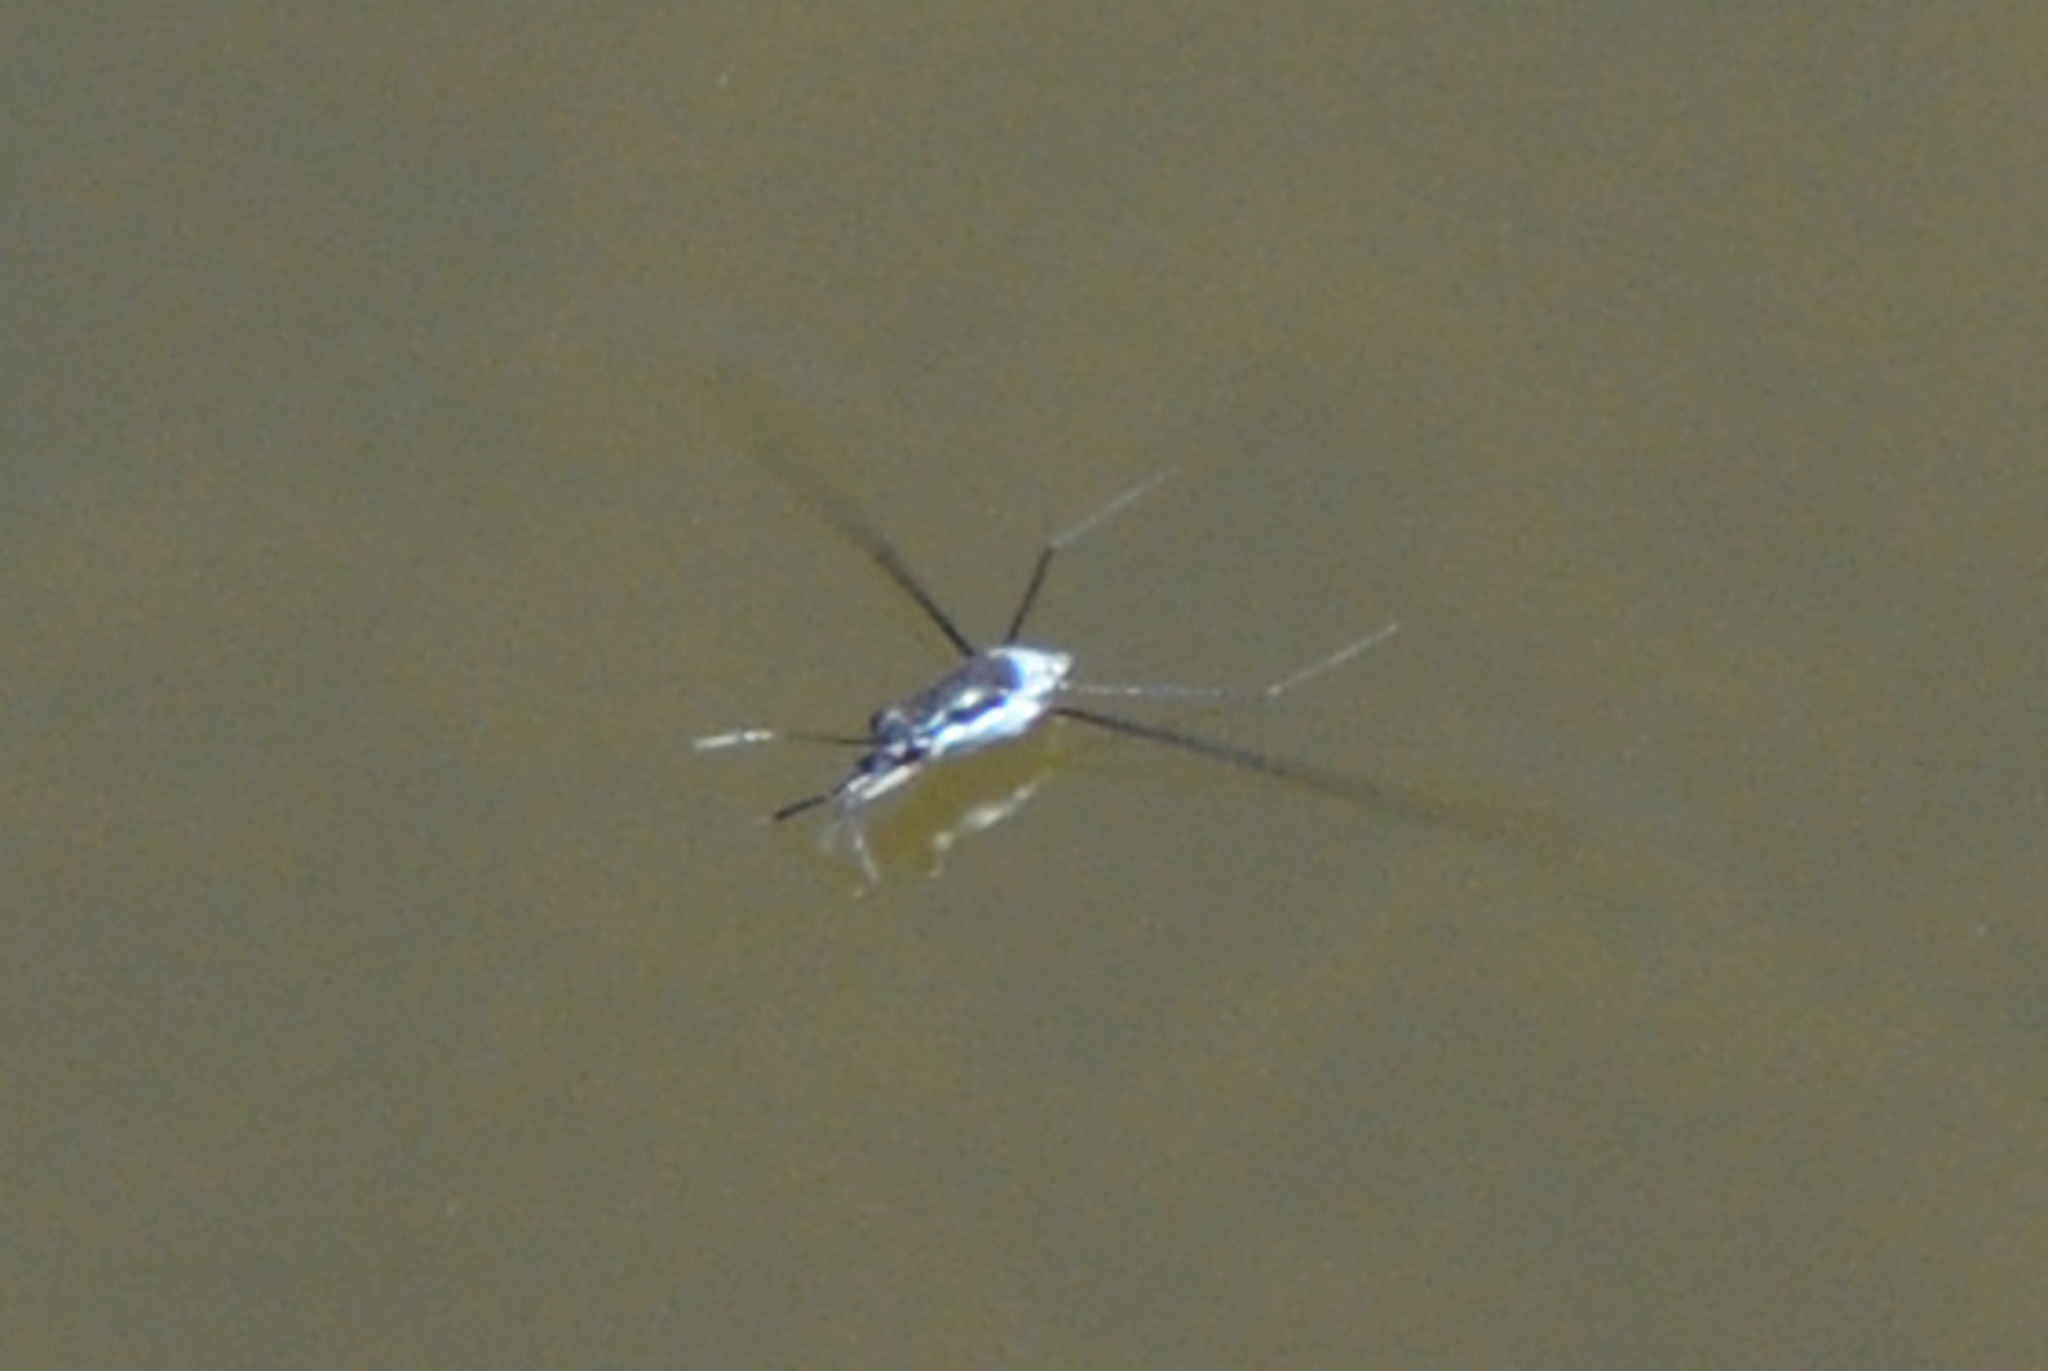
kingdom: Animalia
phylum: Arthropoda
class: Insecta
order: Hemiptera
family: Gerridae
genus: Neogerris
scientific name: Neogerris hesione
